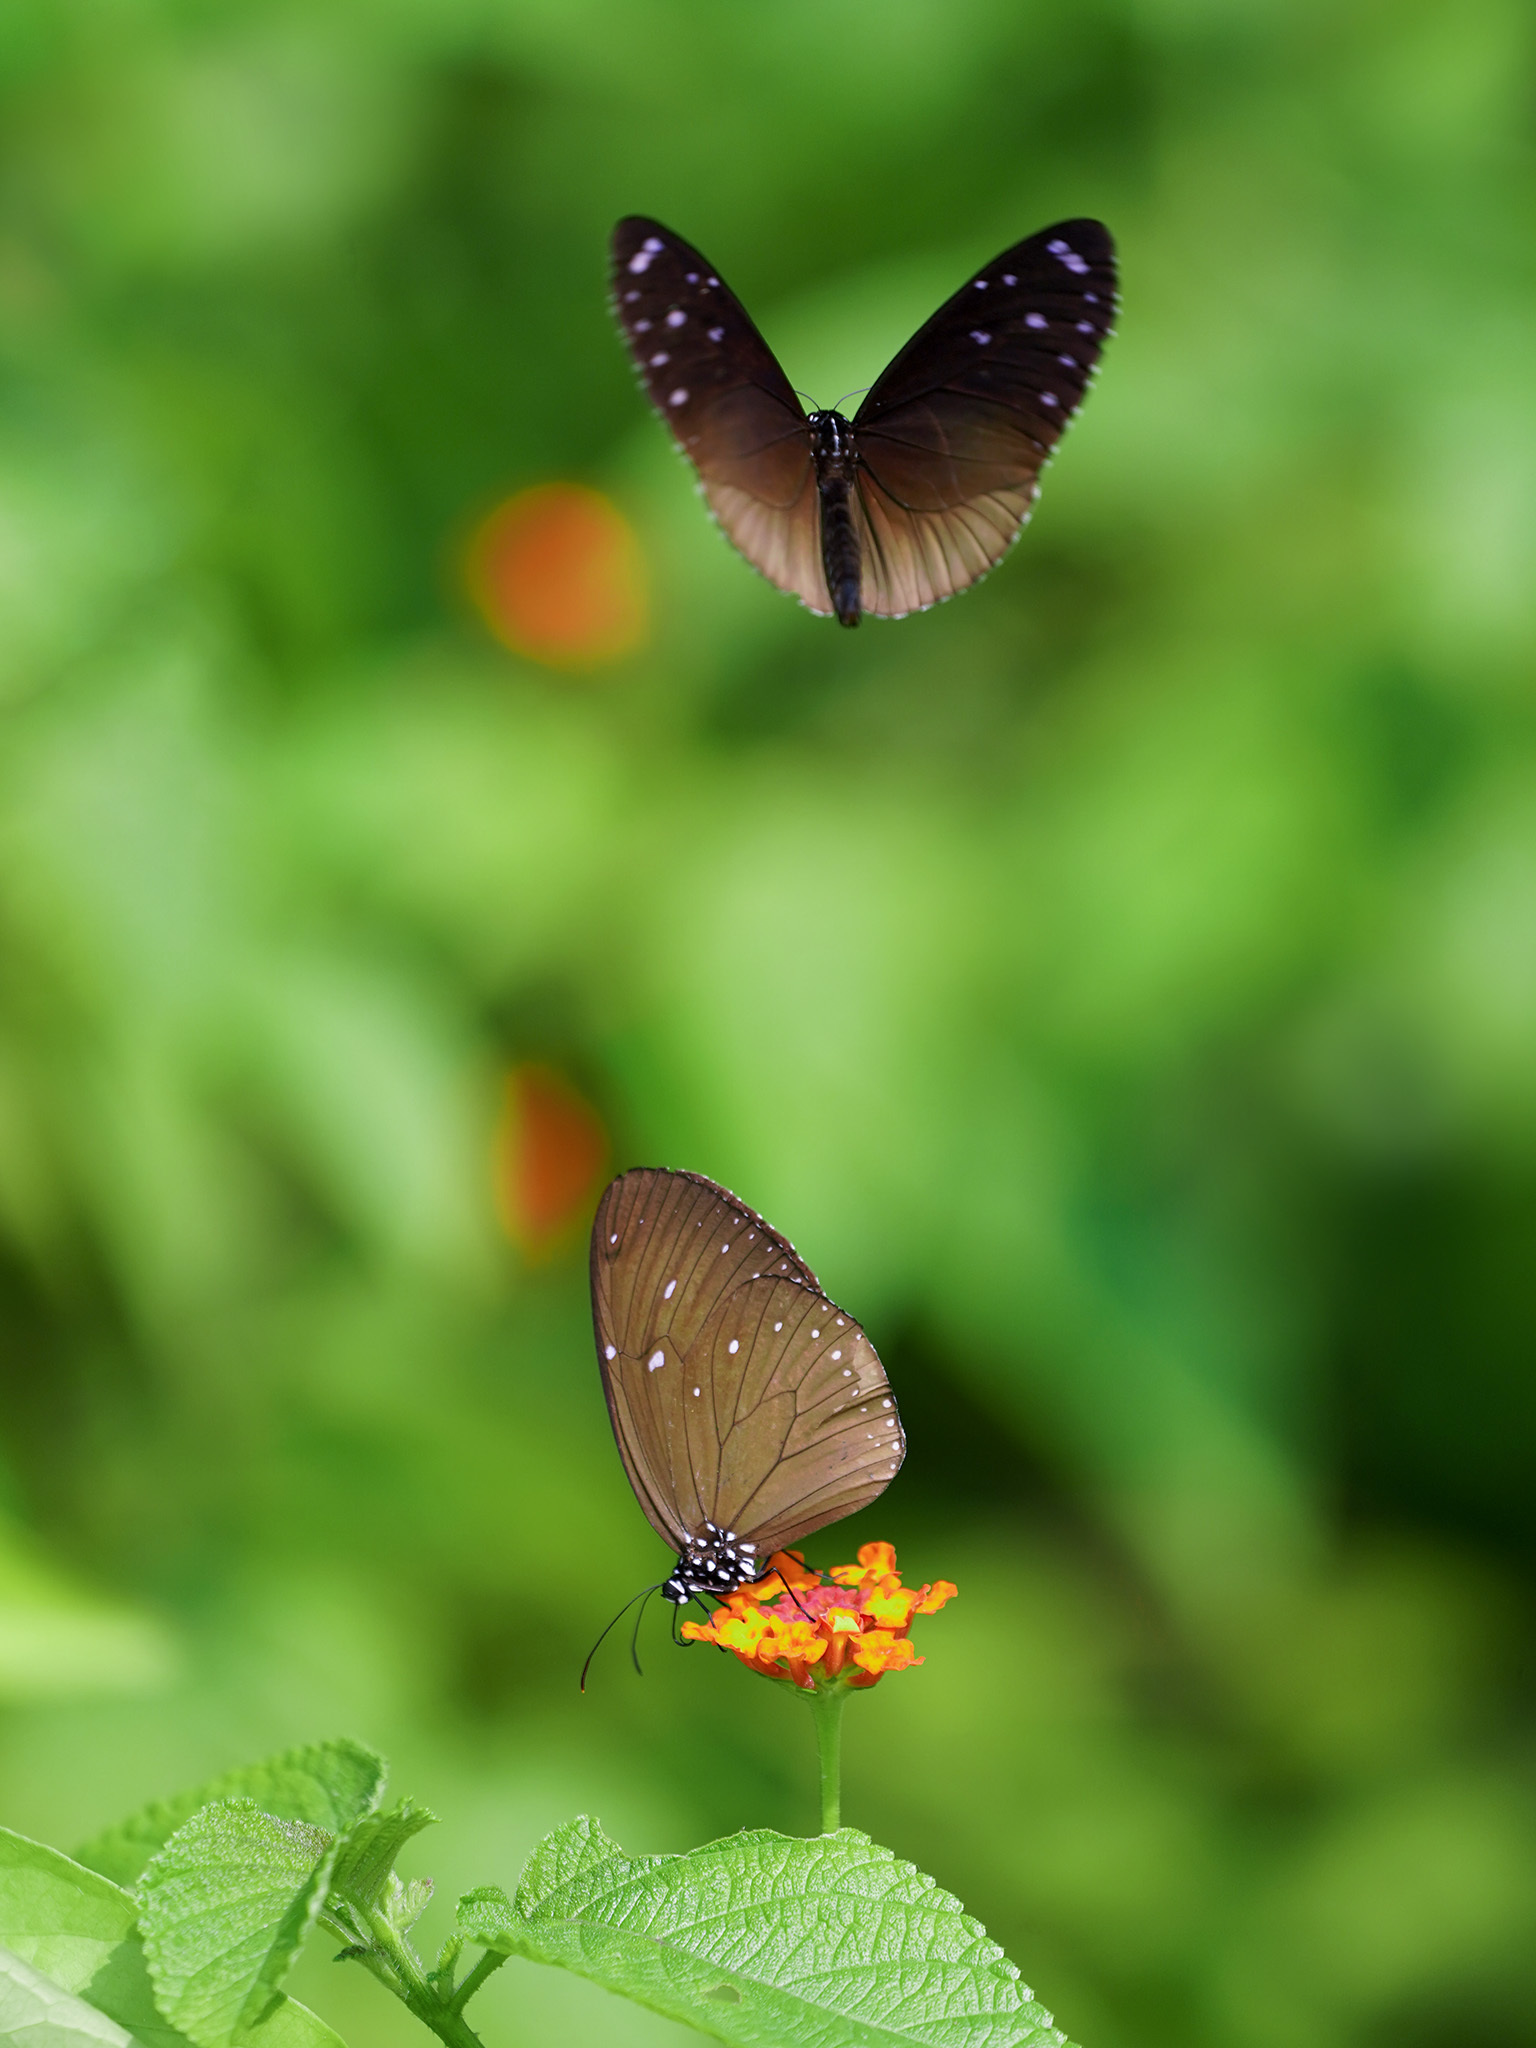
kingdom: Animalia
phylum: Arthropoda
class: Insecta
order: Lepidoptera
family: Nymphalidae
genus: Euploea
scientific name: Euploea tulliolus
